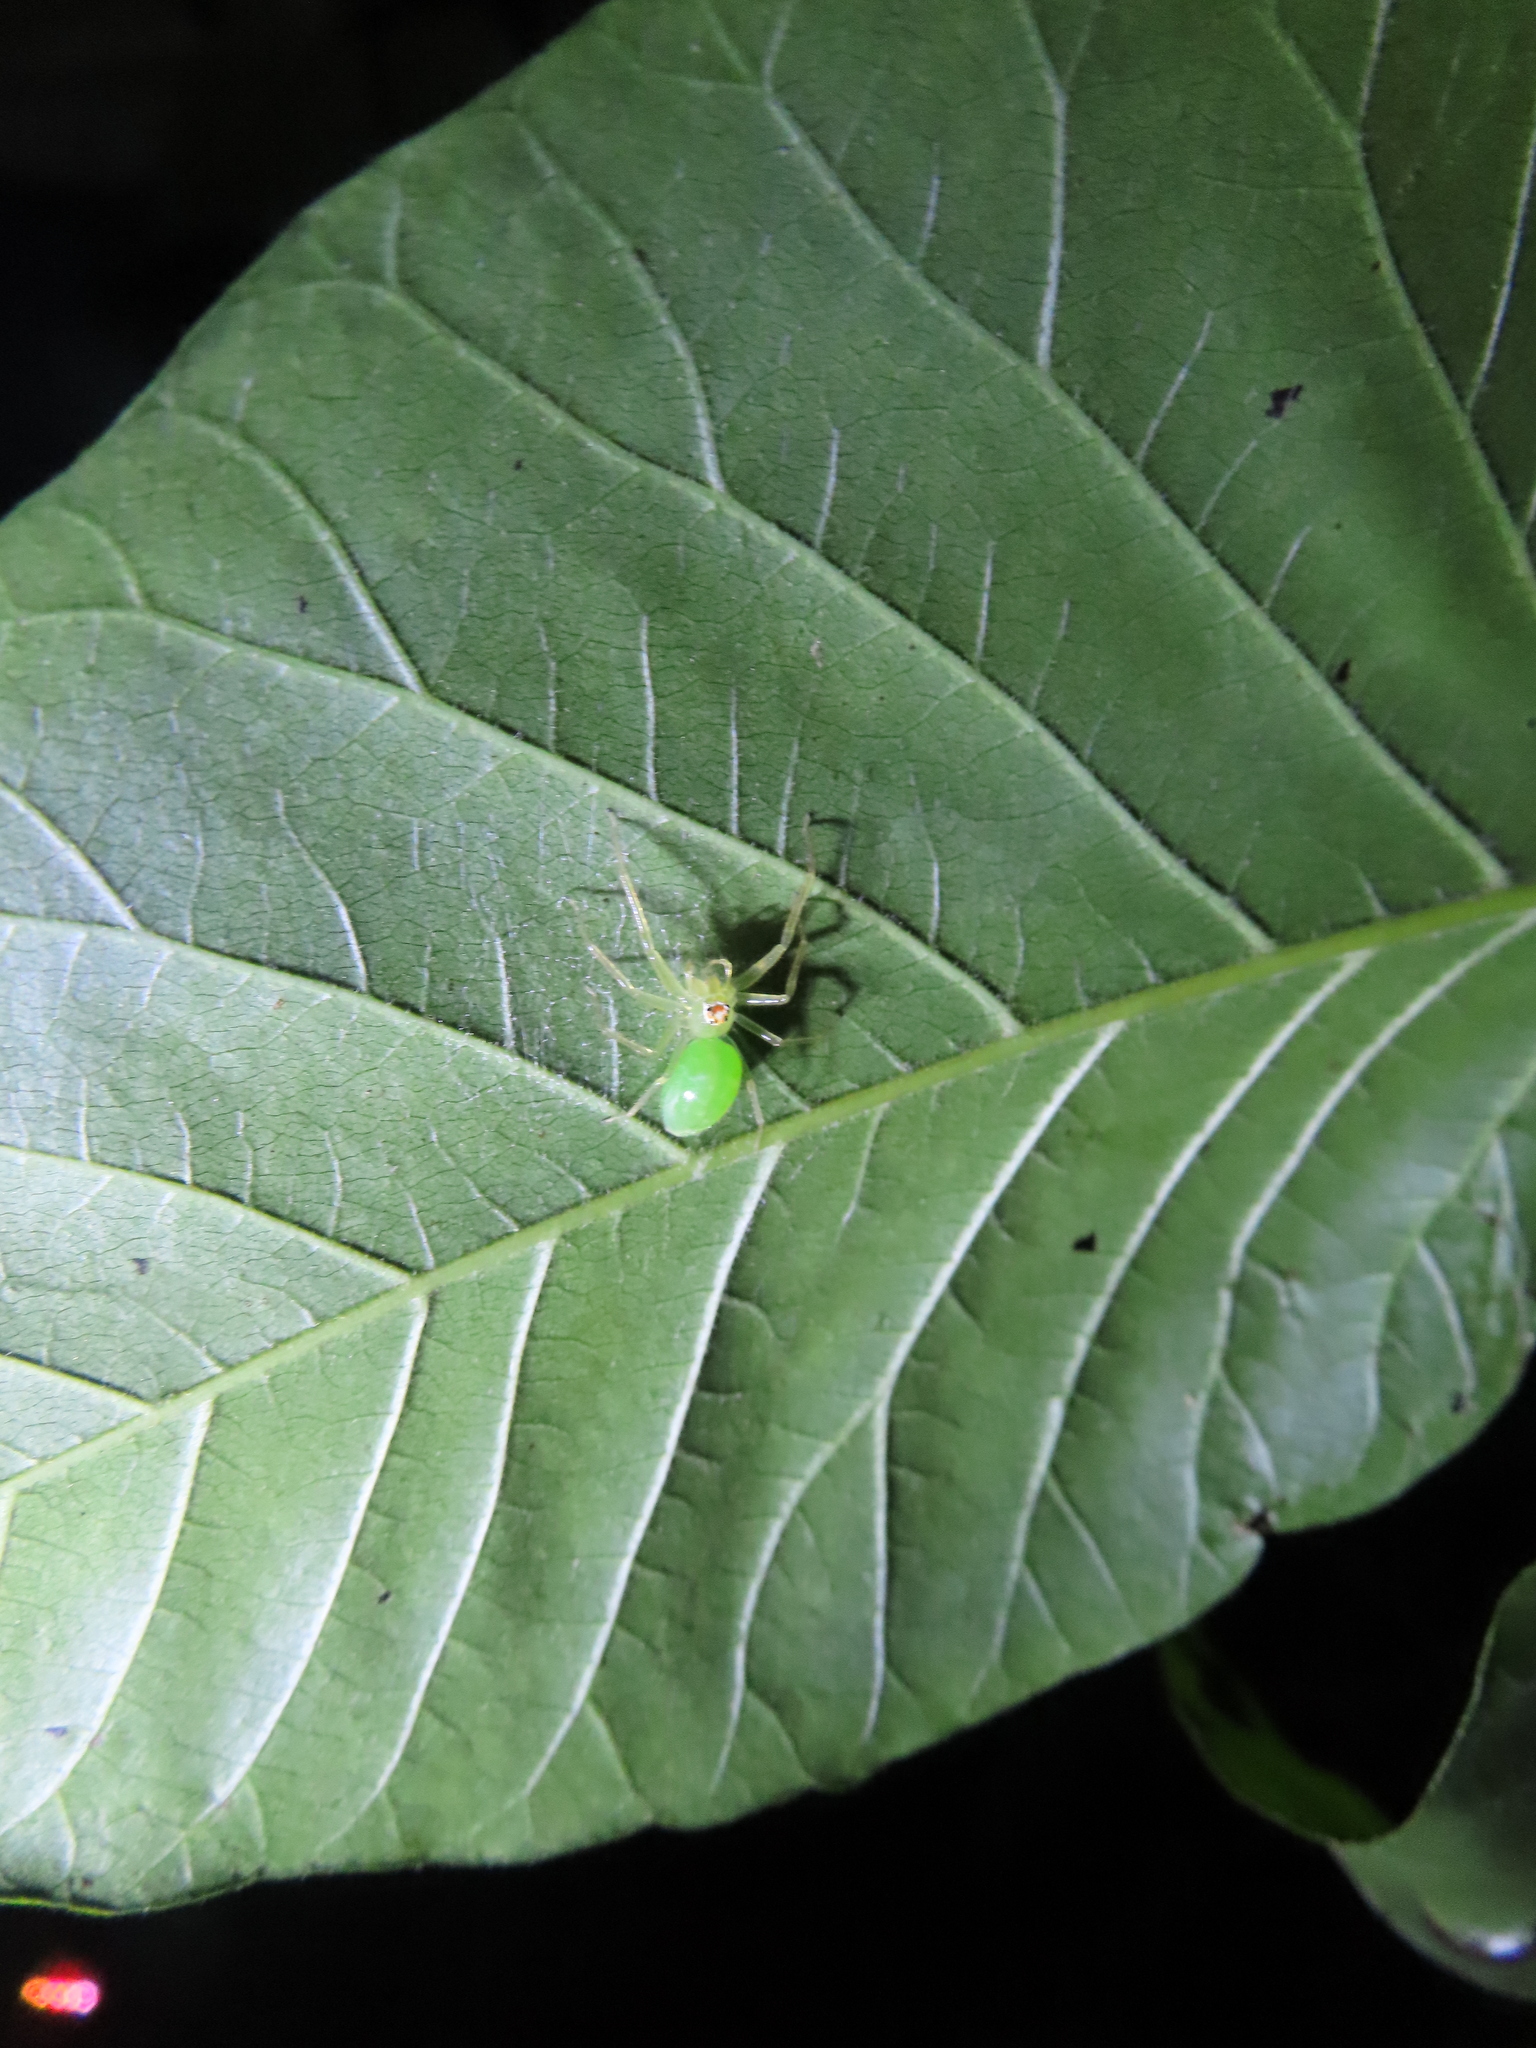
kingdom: Animalia
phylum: Arthropoda
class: Arachnida
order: Araneae
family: Salticidae
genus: Lyssomanes
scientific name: Lyssomanes viridis
